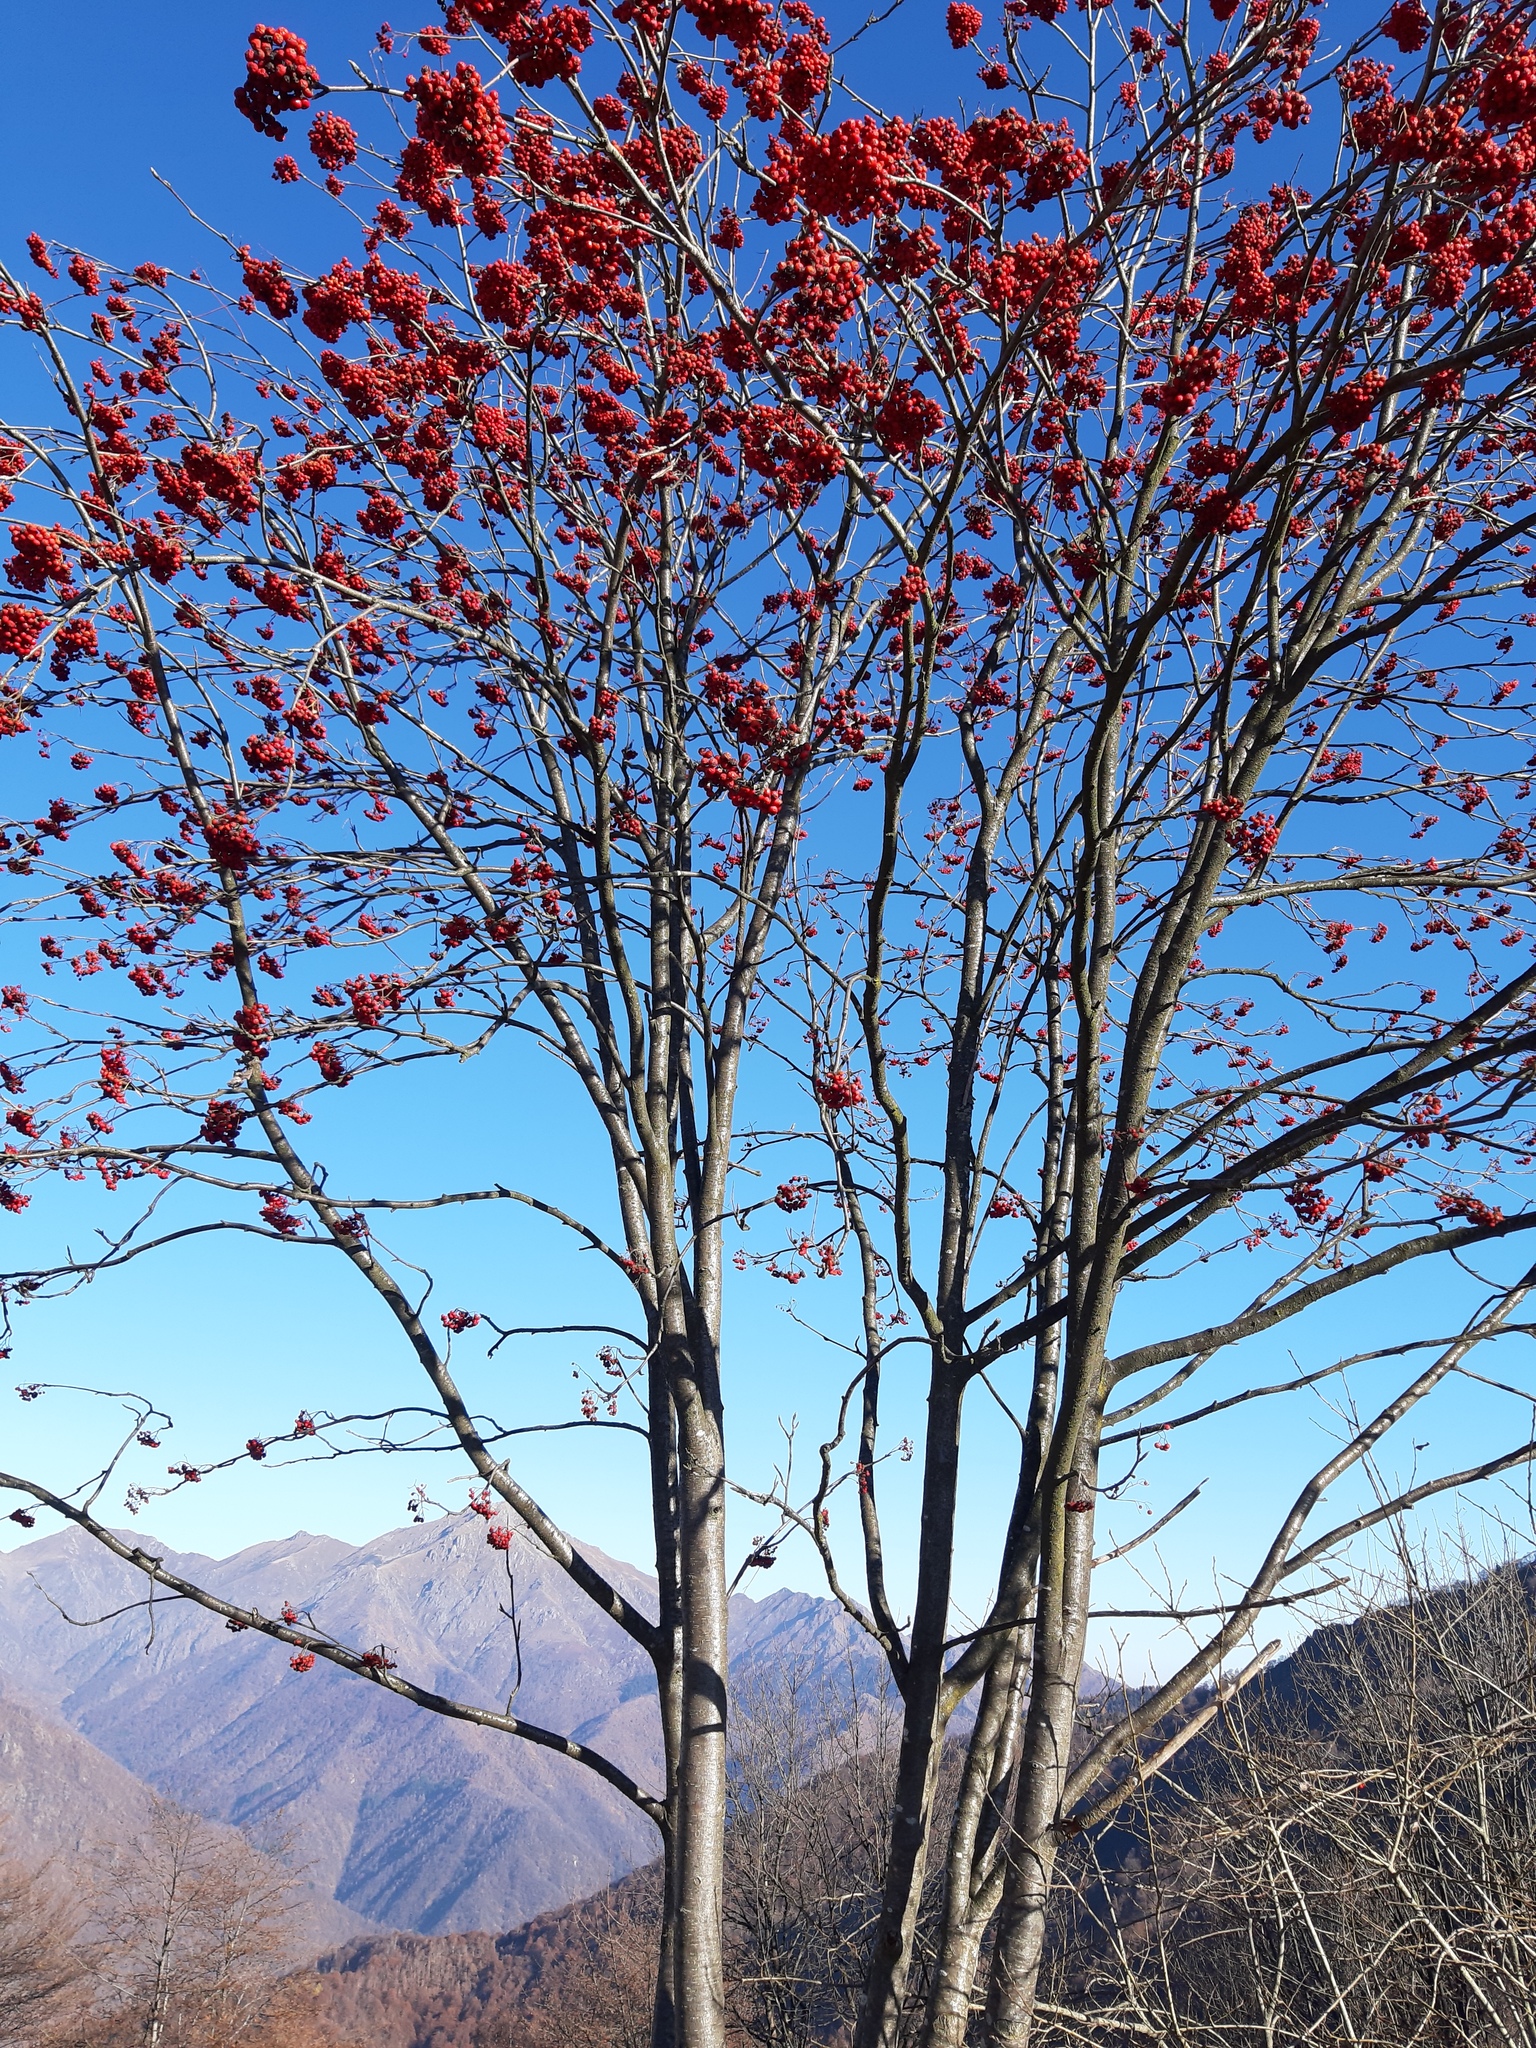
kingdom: Plantae
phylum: Tracheophyta
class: Magnoliopsida
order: Rosales
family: Rosaceae
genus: Sorbus
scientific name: Sorbus aucuparia
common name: Rowan
